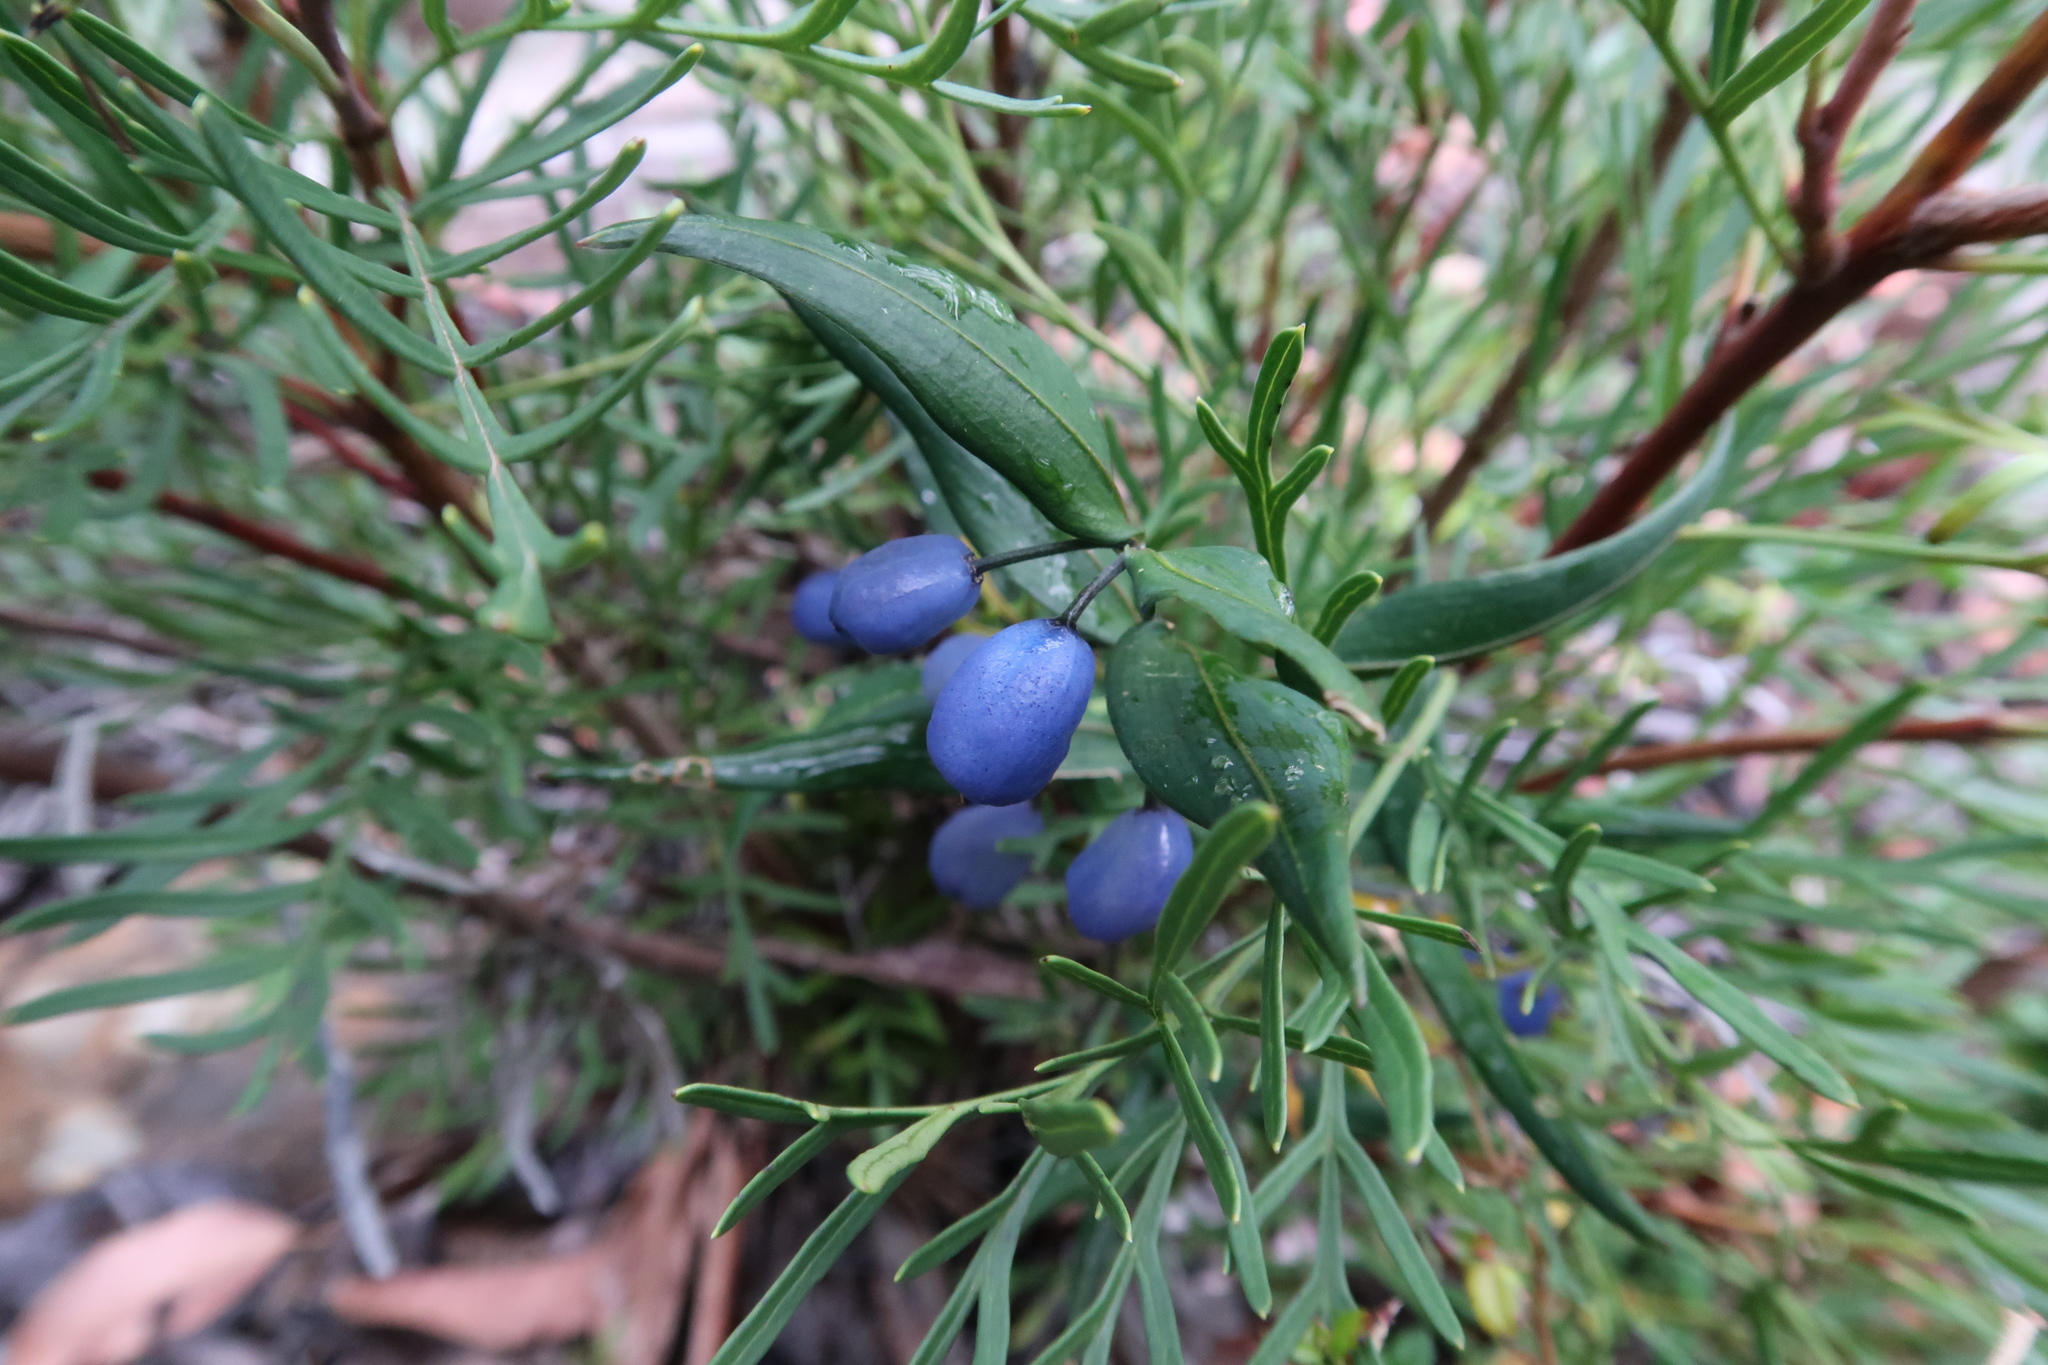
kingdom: Plantae
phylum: Tracheophyta
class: Liliopsida
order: Liliales
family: Alstroemeriaceae
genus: Drymophila
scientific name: Drymophila cyanocarpa
